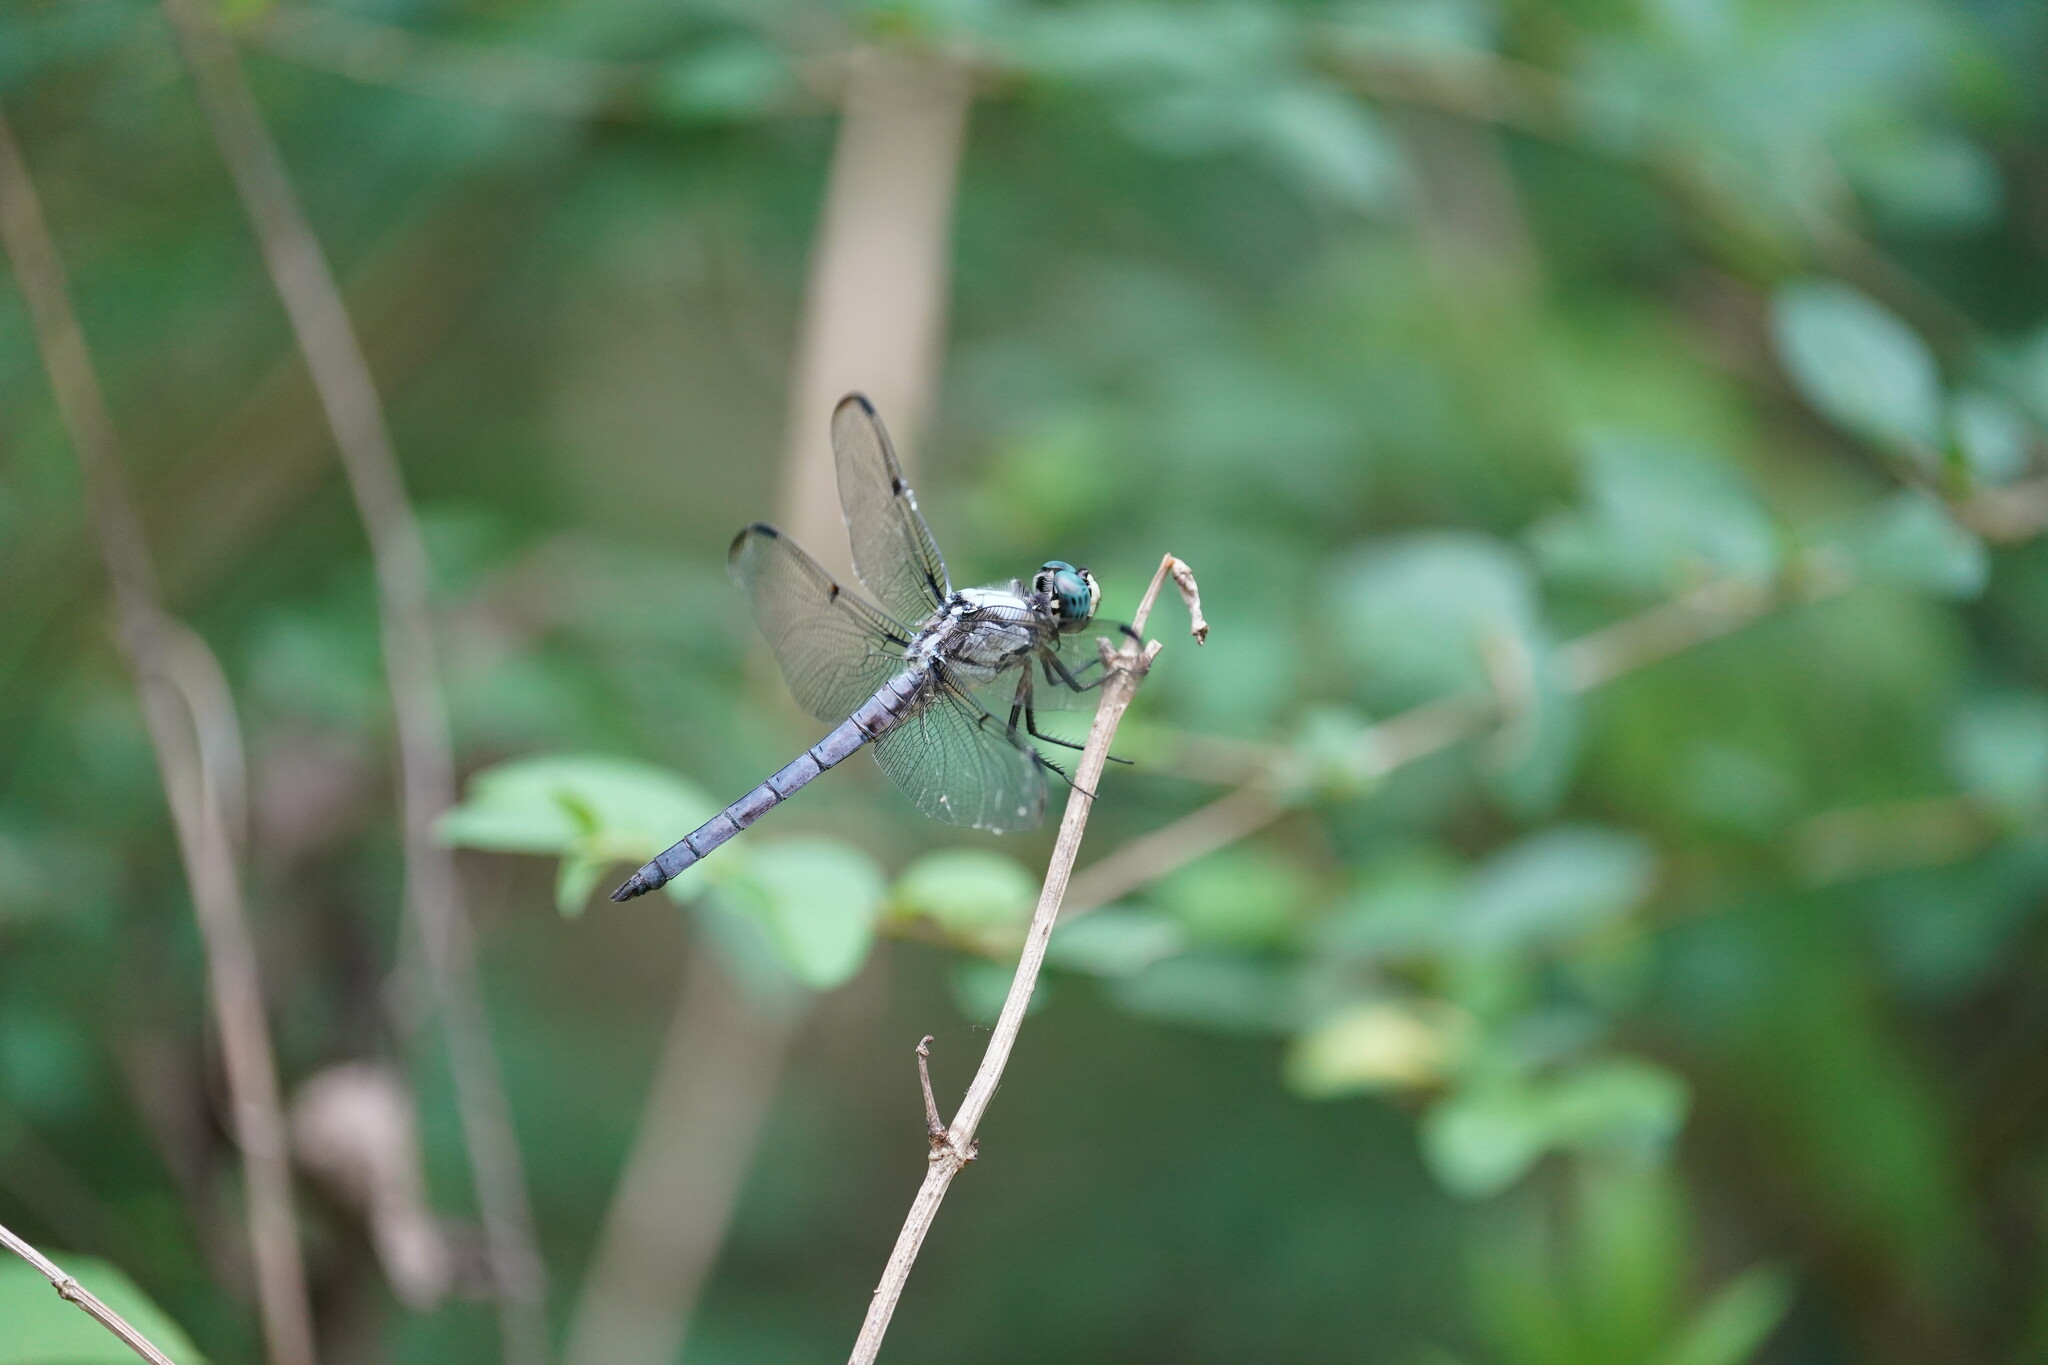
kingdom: Animalia
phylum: Arthropoda
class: Insecta
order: Odonata
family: Libellulidae
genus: Libellula
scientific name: Libellula vibrans
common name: Great blue skimmer
